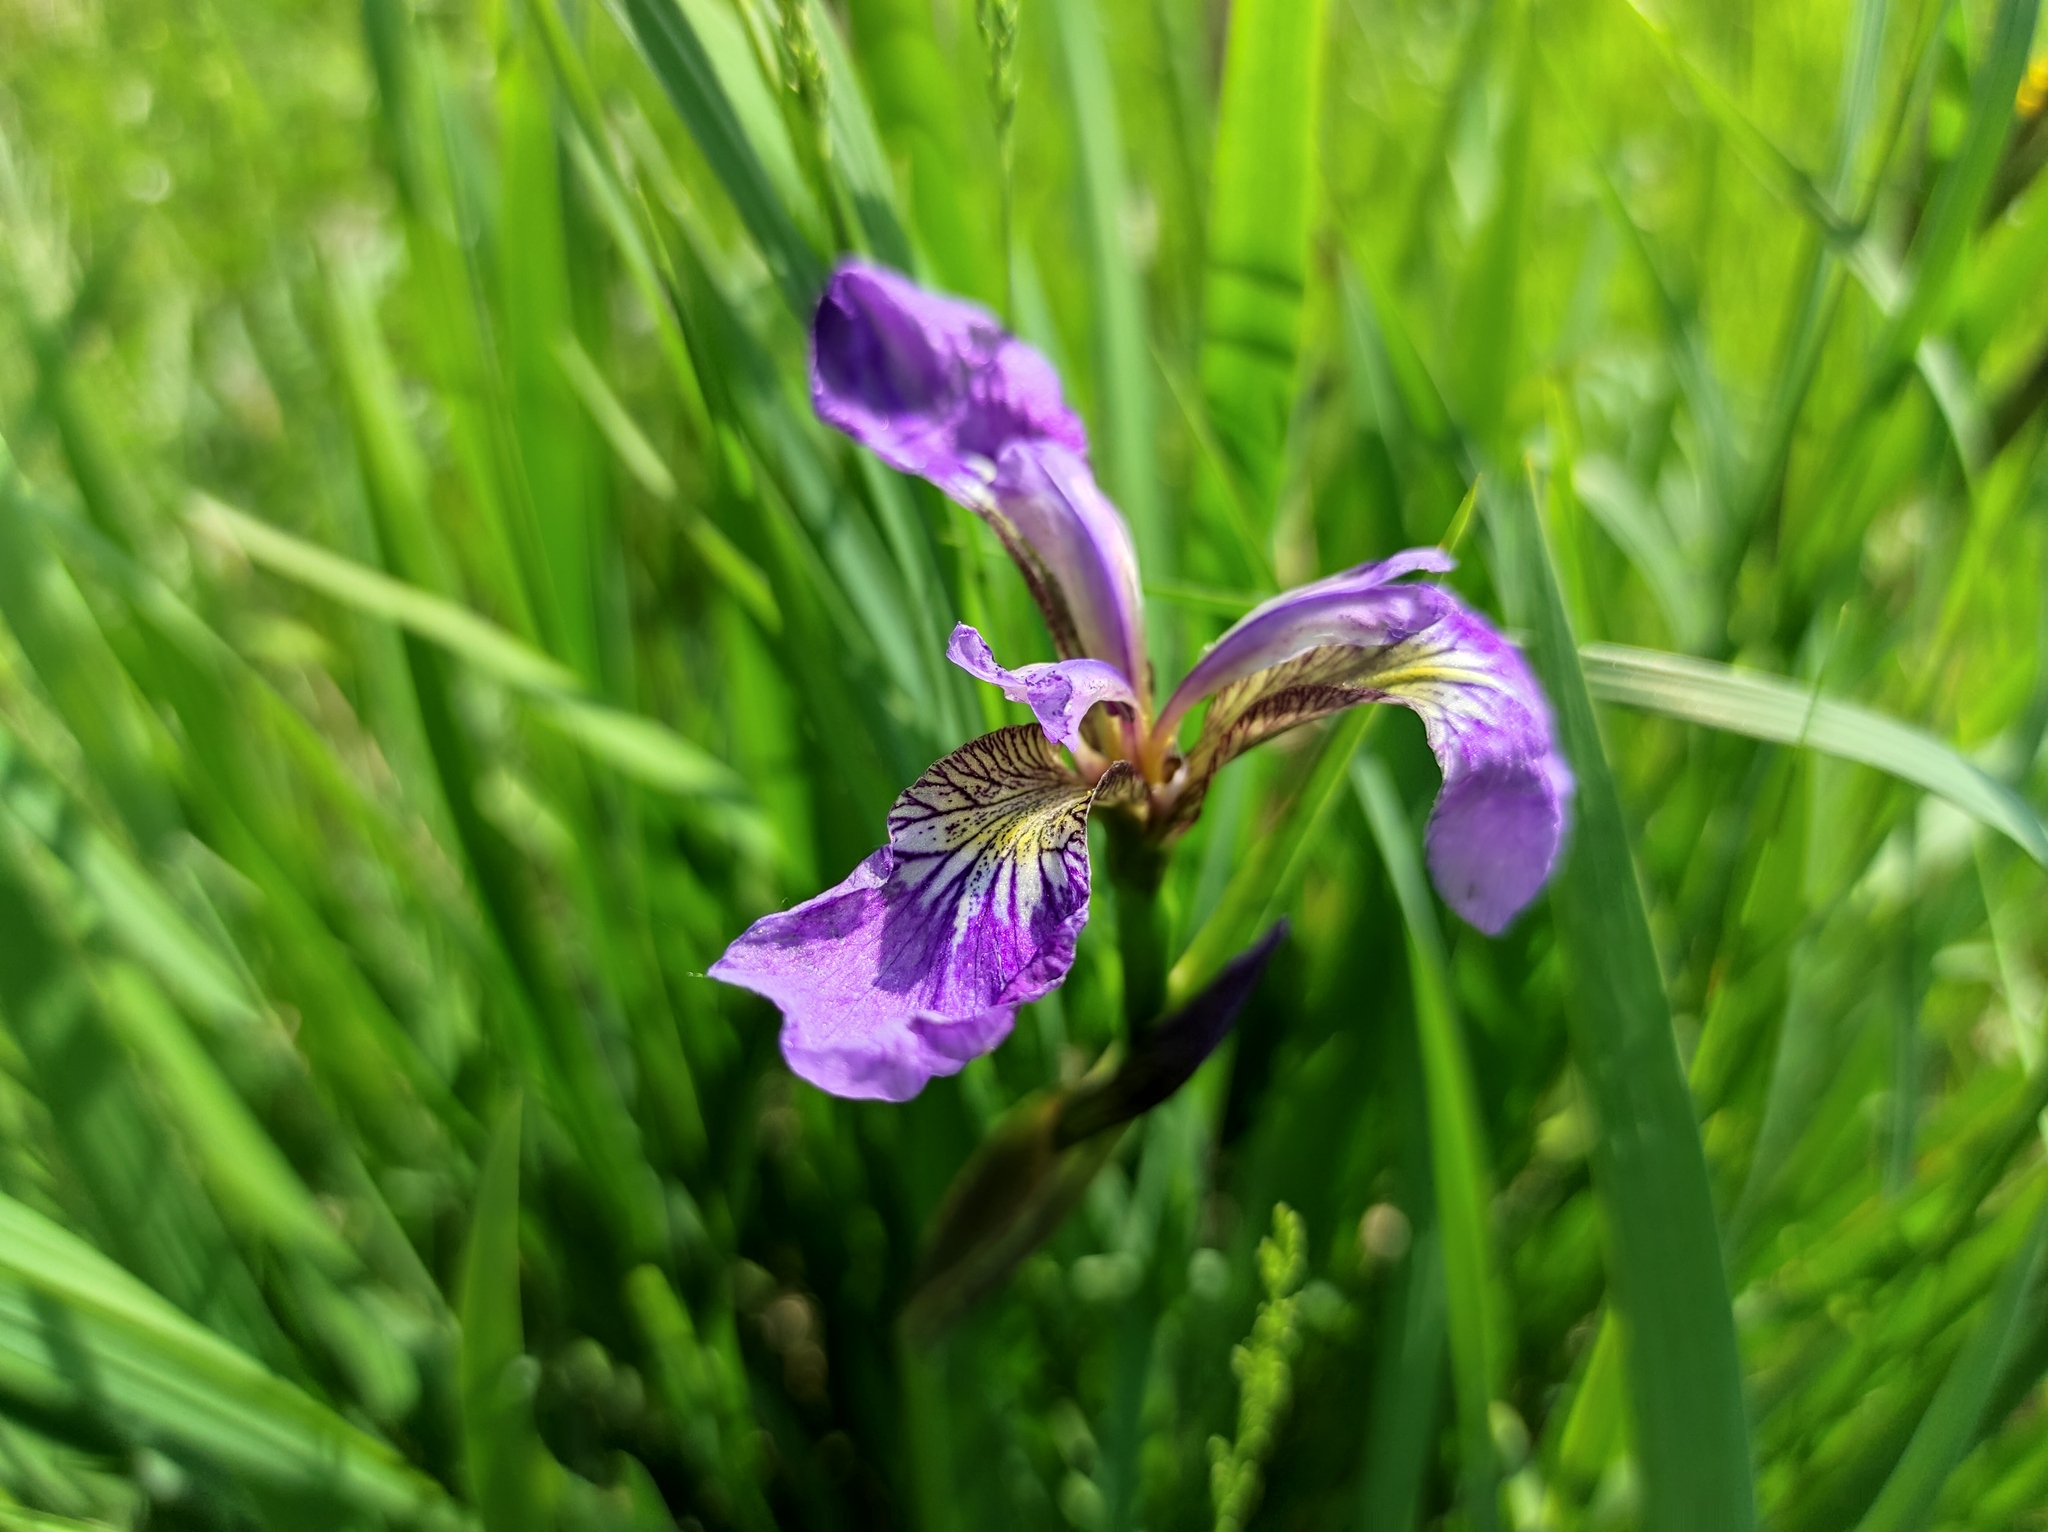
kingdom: Plantae
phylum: Tracheophyta
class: Liliopsida
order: Asparagales
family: Iridaceae
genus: Iris
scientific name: Iris setosa
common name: Arctic blue flag
